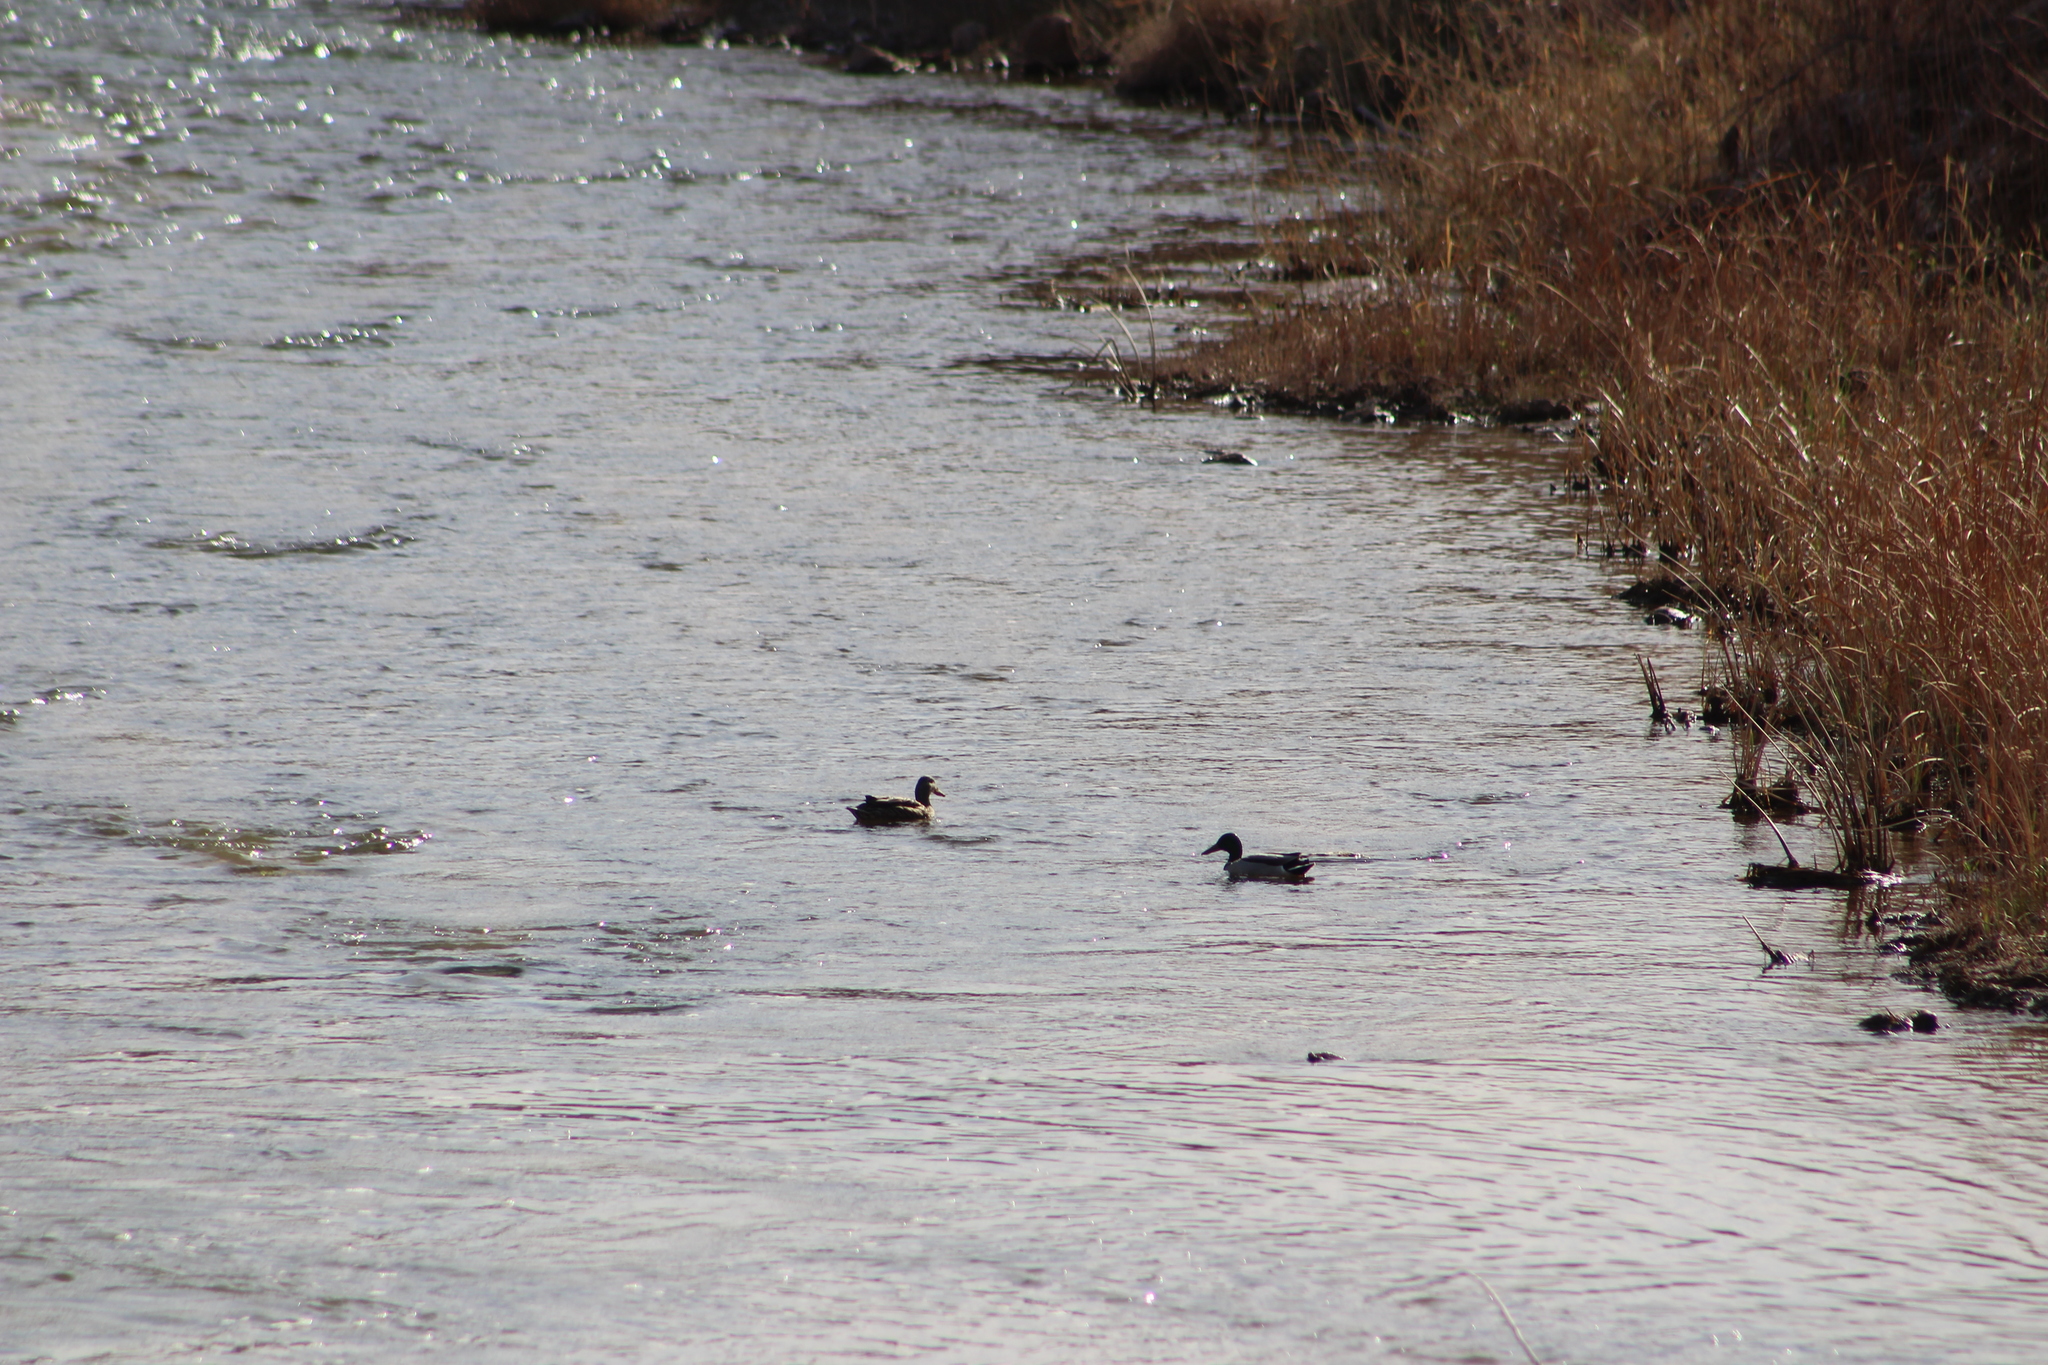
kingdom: Animalia
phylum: Chordata
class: Aves
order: Anseriformes
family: Anatidae
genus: Anas
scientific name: Anas platyrhynchos
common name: Mallard
